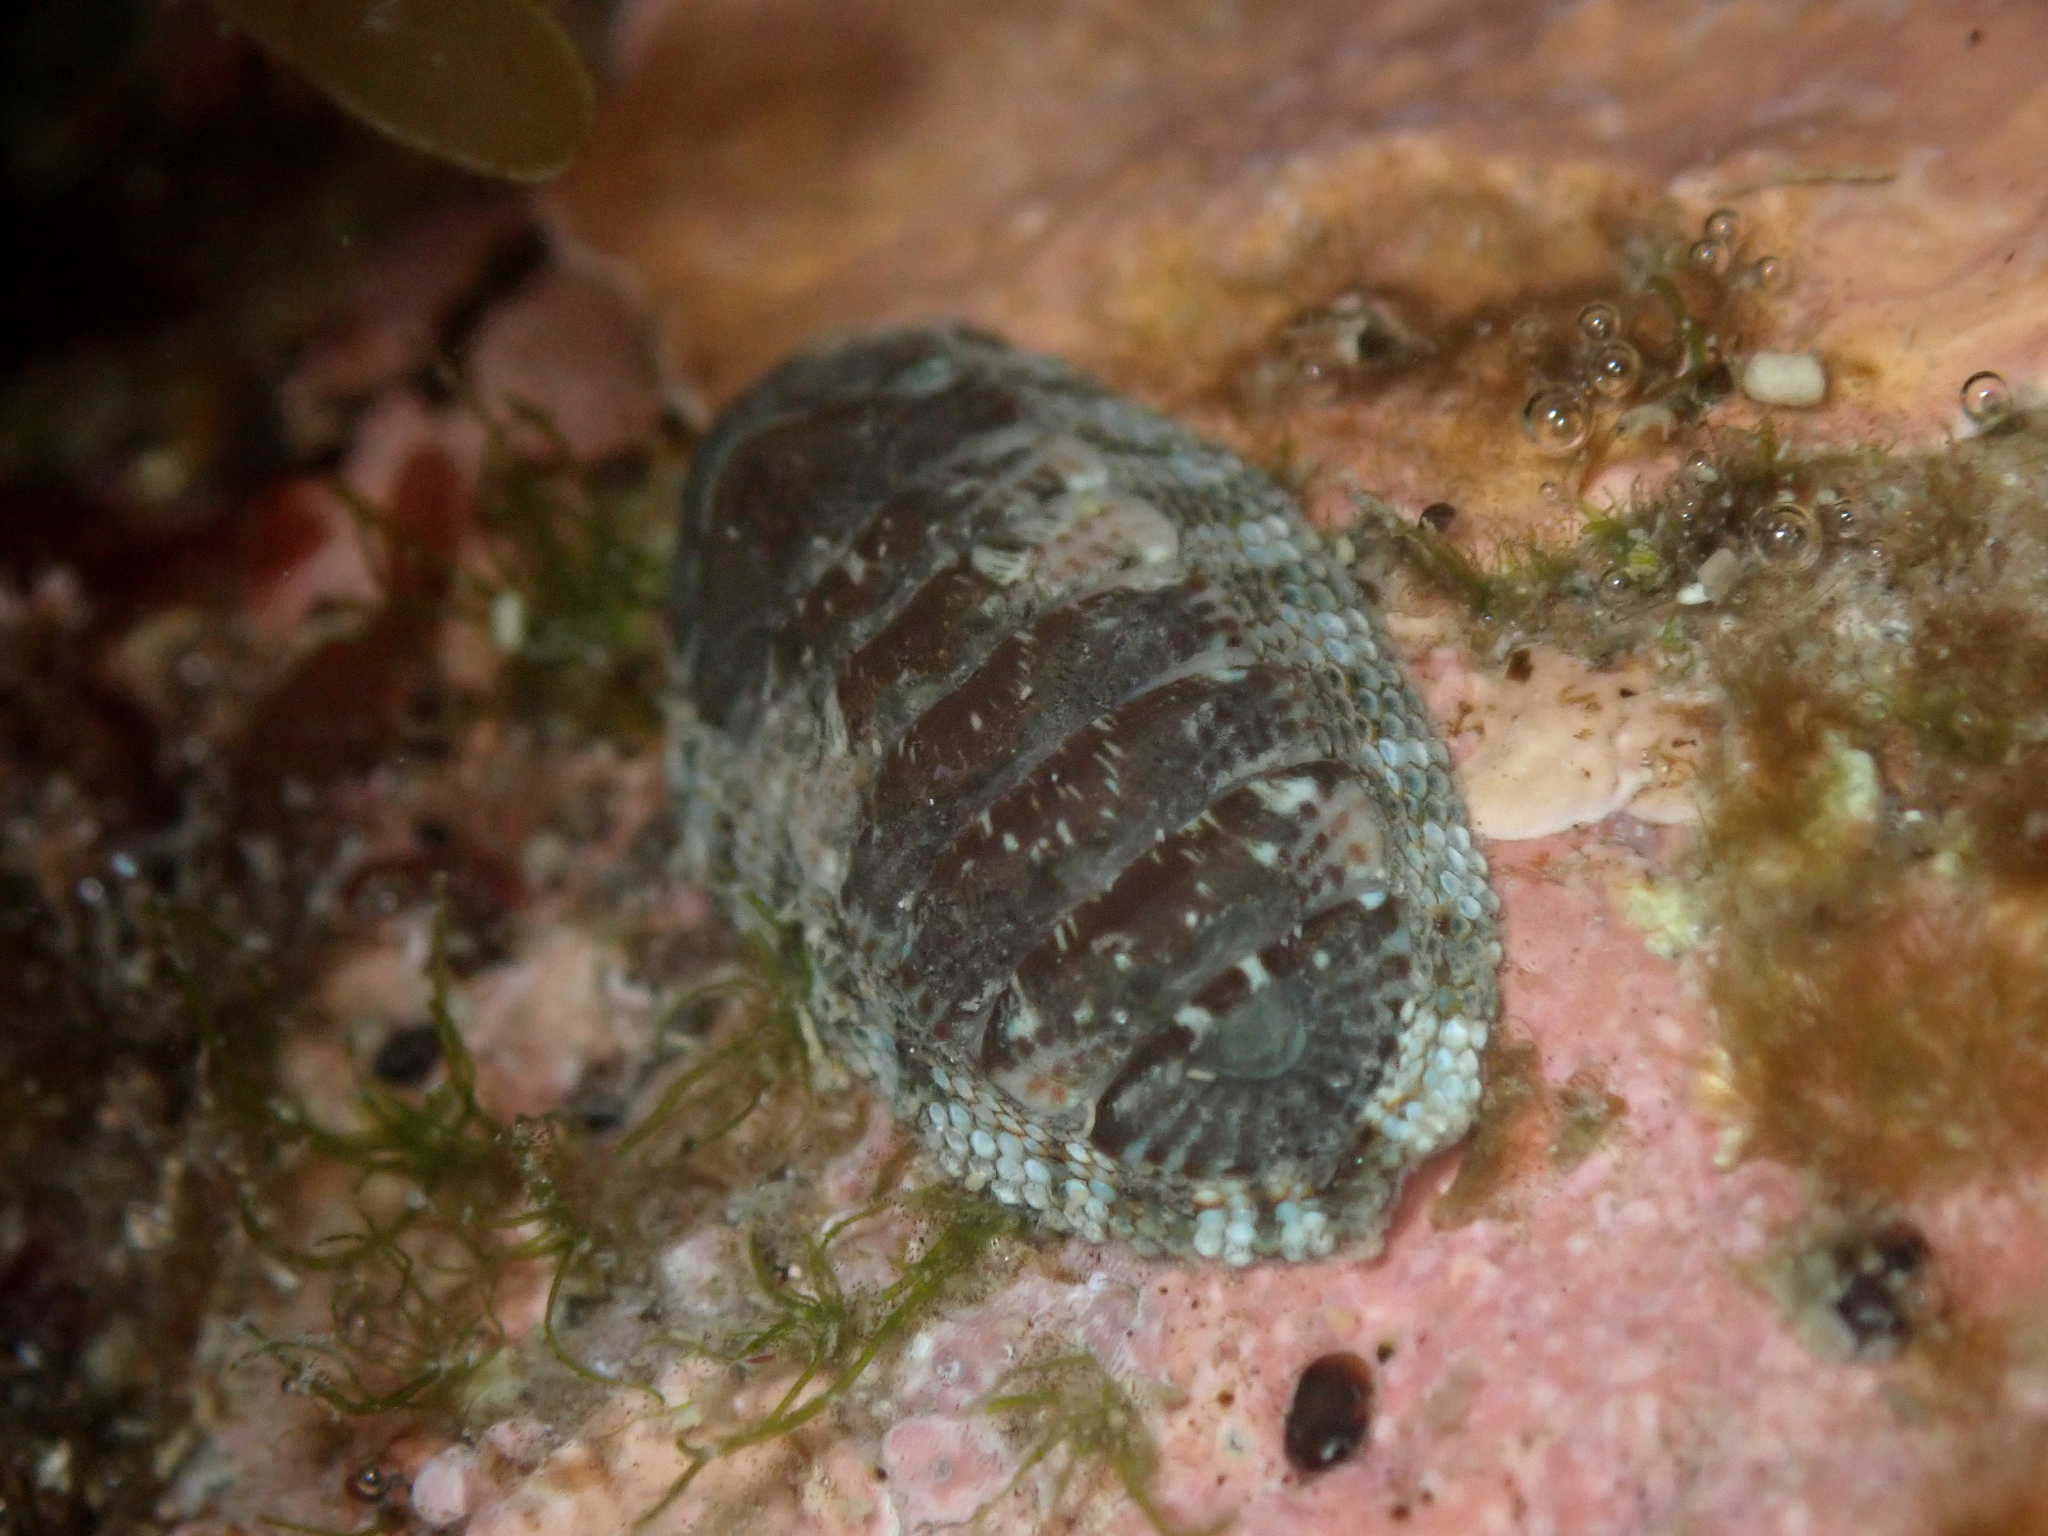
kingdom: Animalia
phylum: Mollusca
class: Polyplacophora
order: Chitonida
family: Chitonidae
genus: Sypharochiton
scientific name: Sypharochiton pelliserpentis
